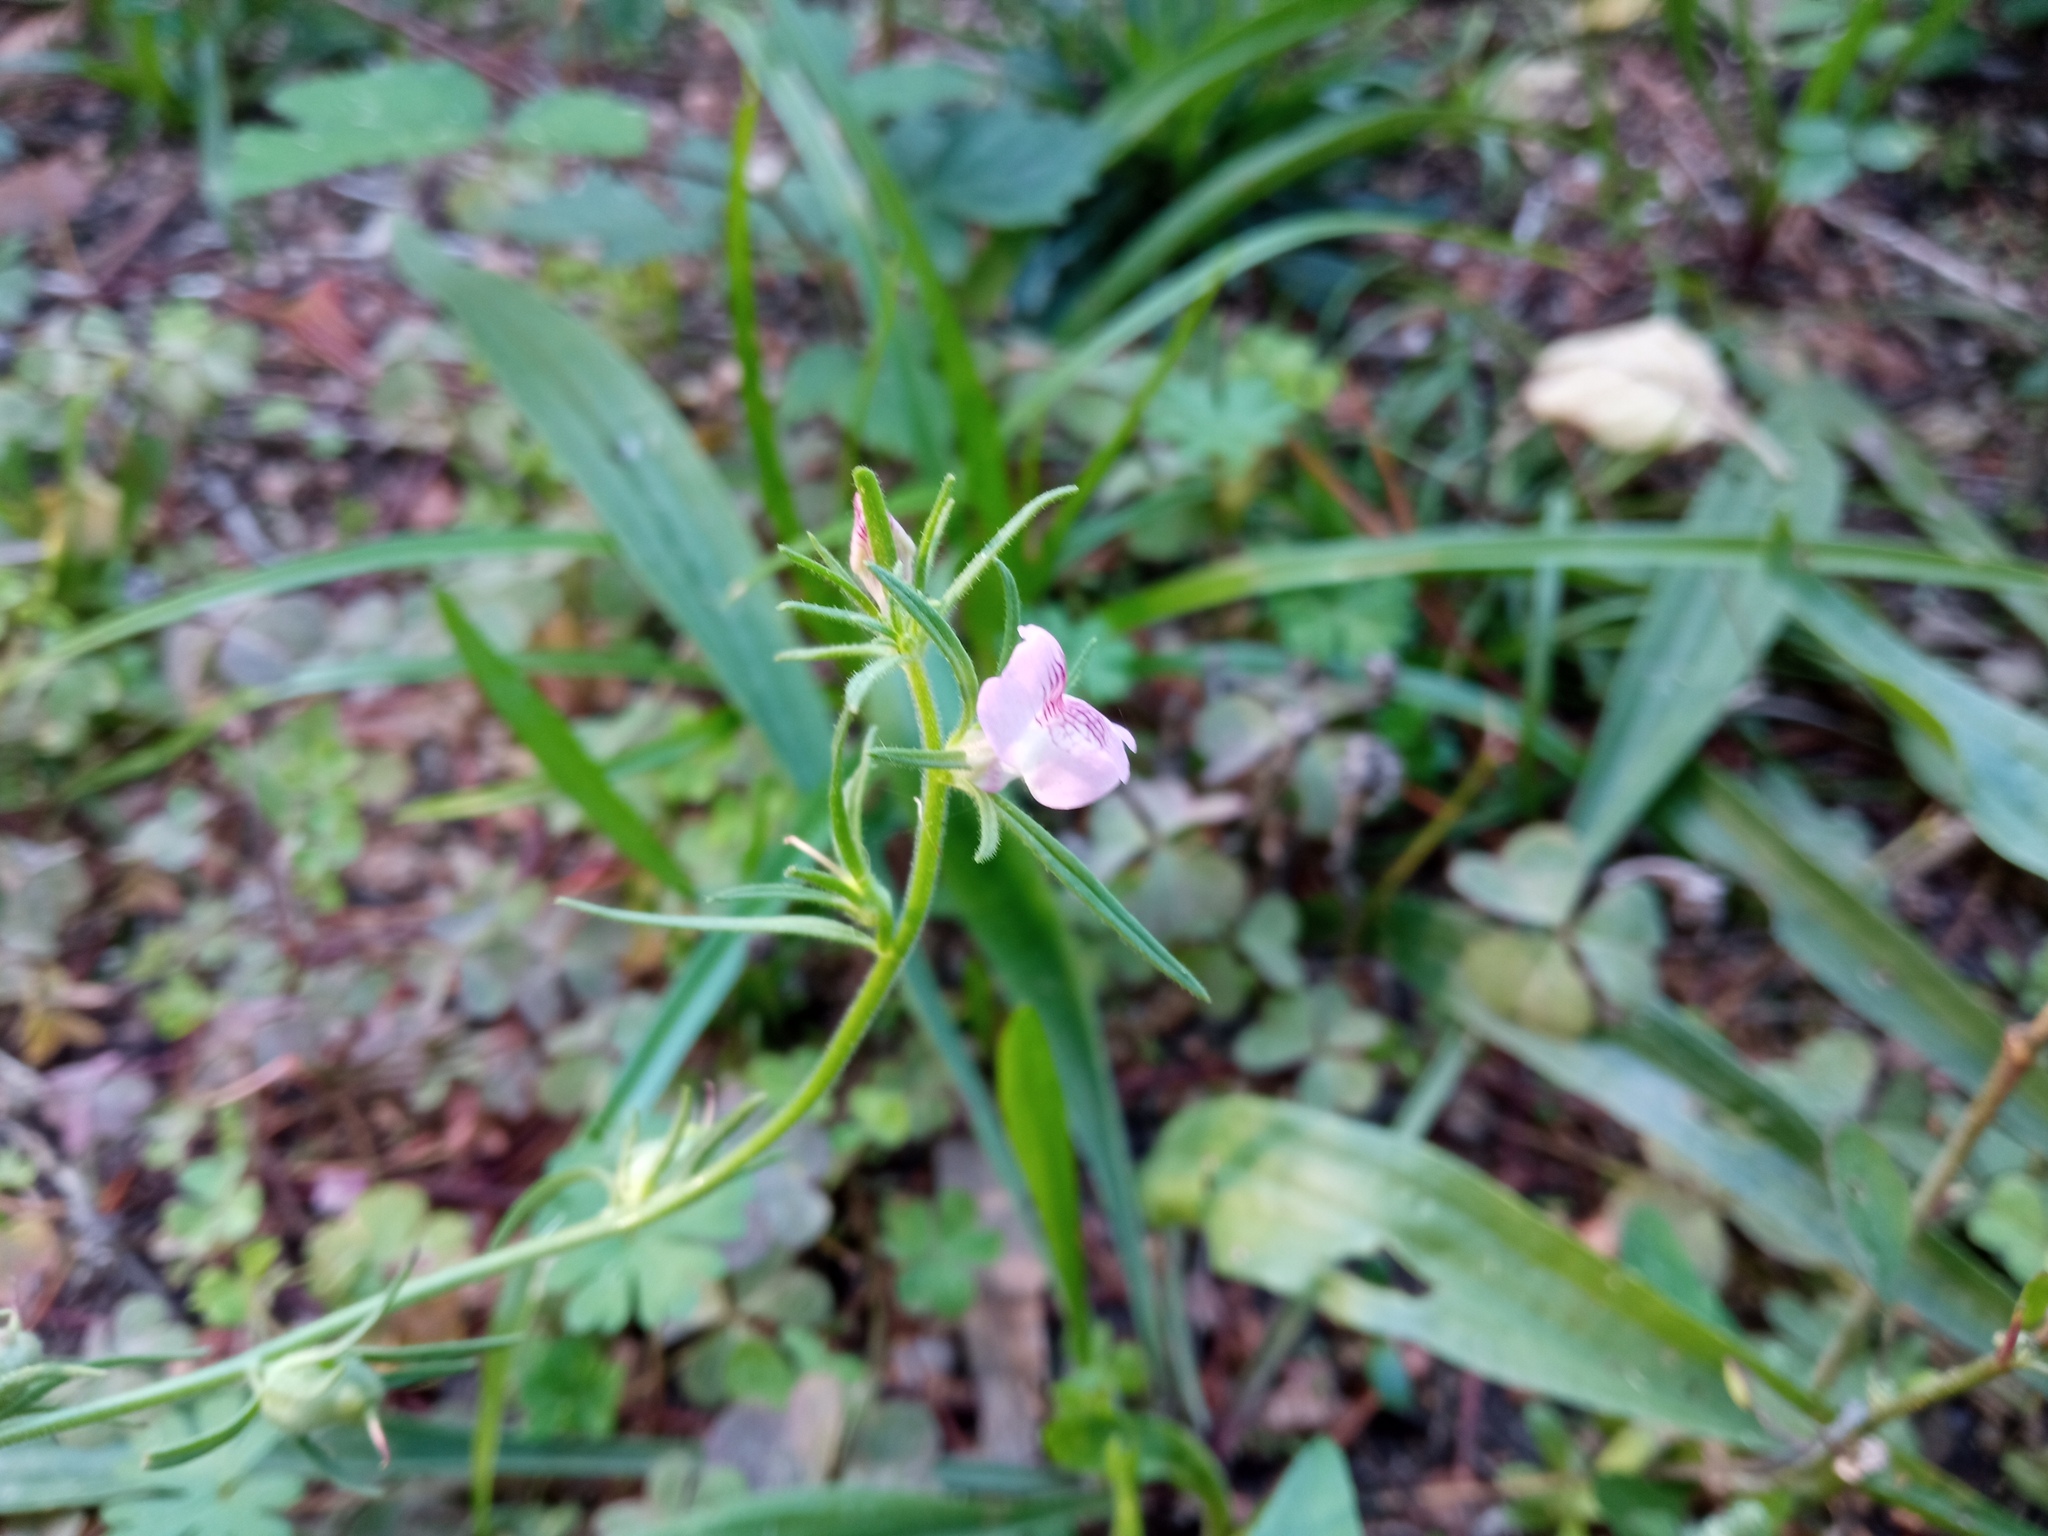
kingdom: Plantae
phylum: Tracheophyta
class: Magnoliopsida
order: Lamiales
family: Plantaginaceae
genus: Misopates
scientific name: Misopates orontium
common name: Weasel's-snout
